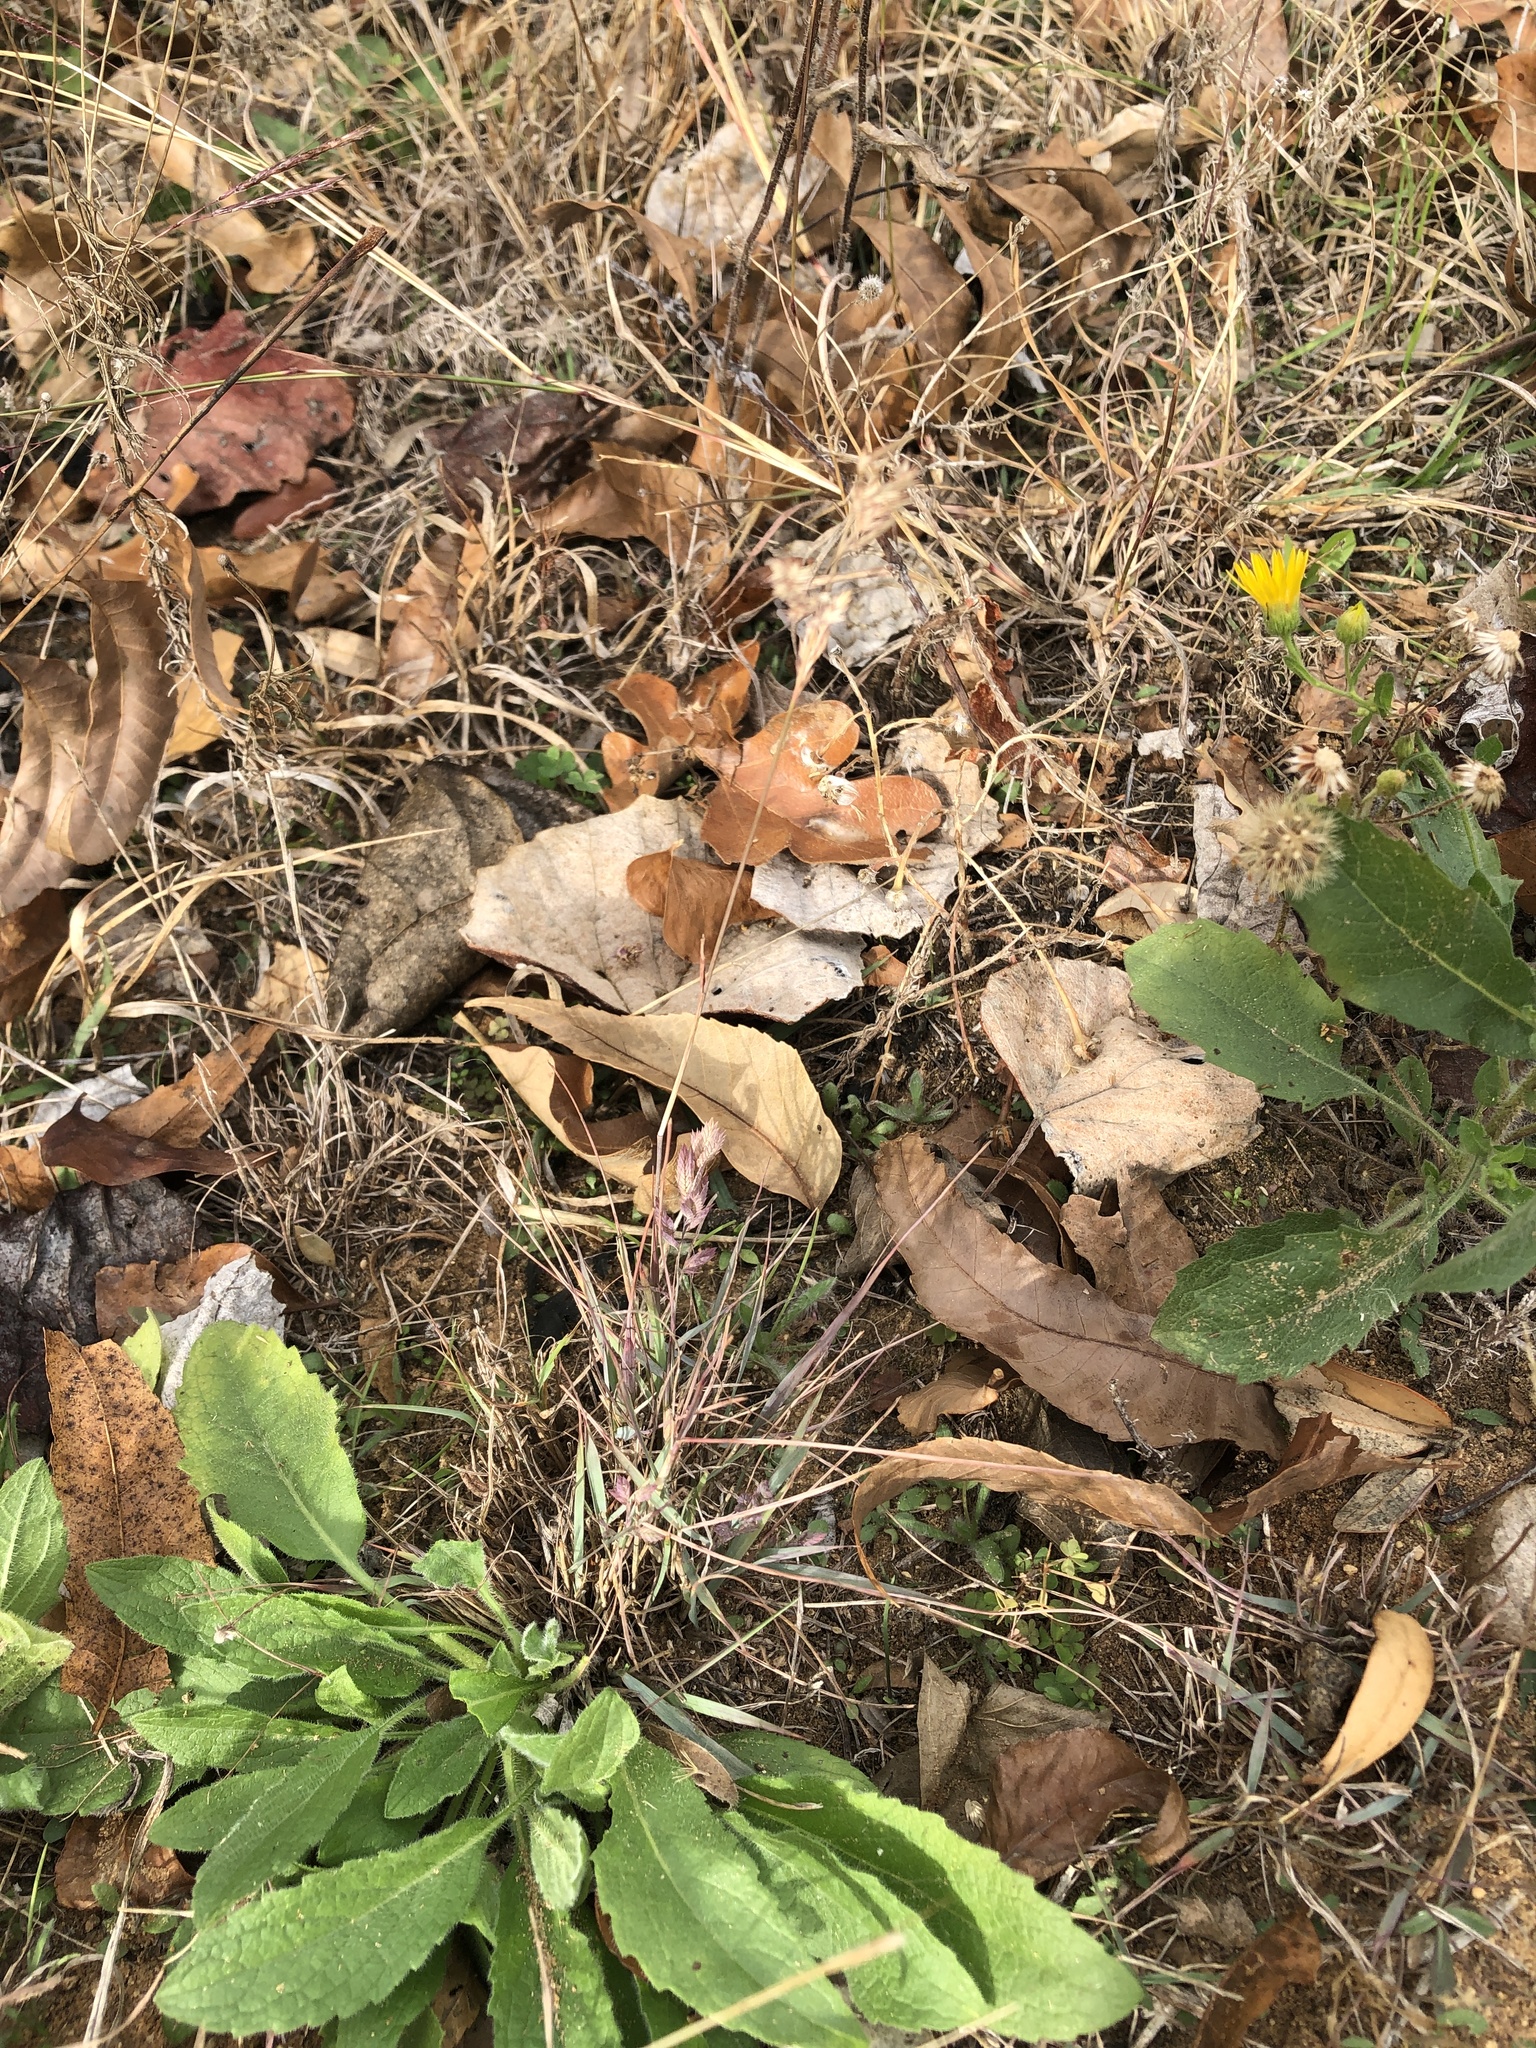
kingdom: Plantae
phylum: Tracheophyta
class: Liliopsida
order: Poales
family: Poaceae
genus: Eragrostis
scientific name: Eragrostis secundiflora
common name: Red love grass
